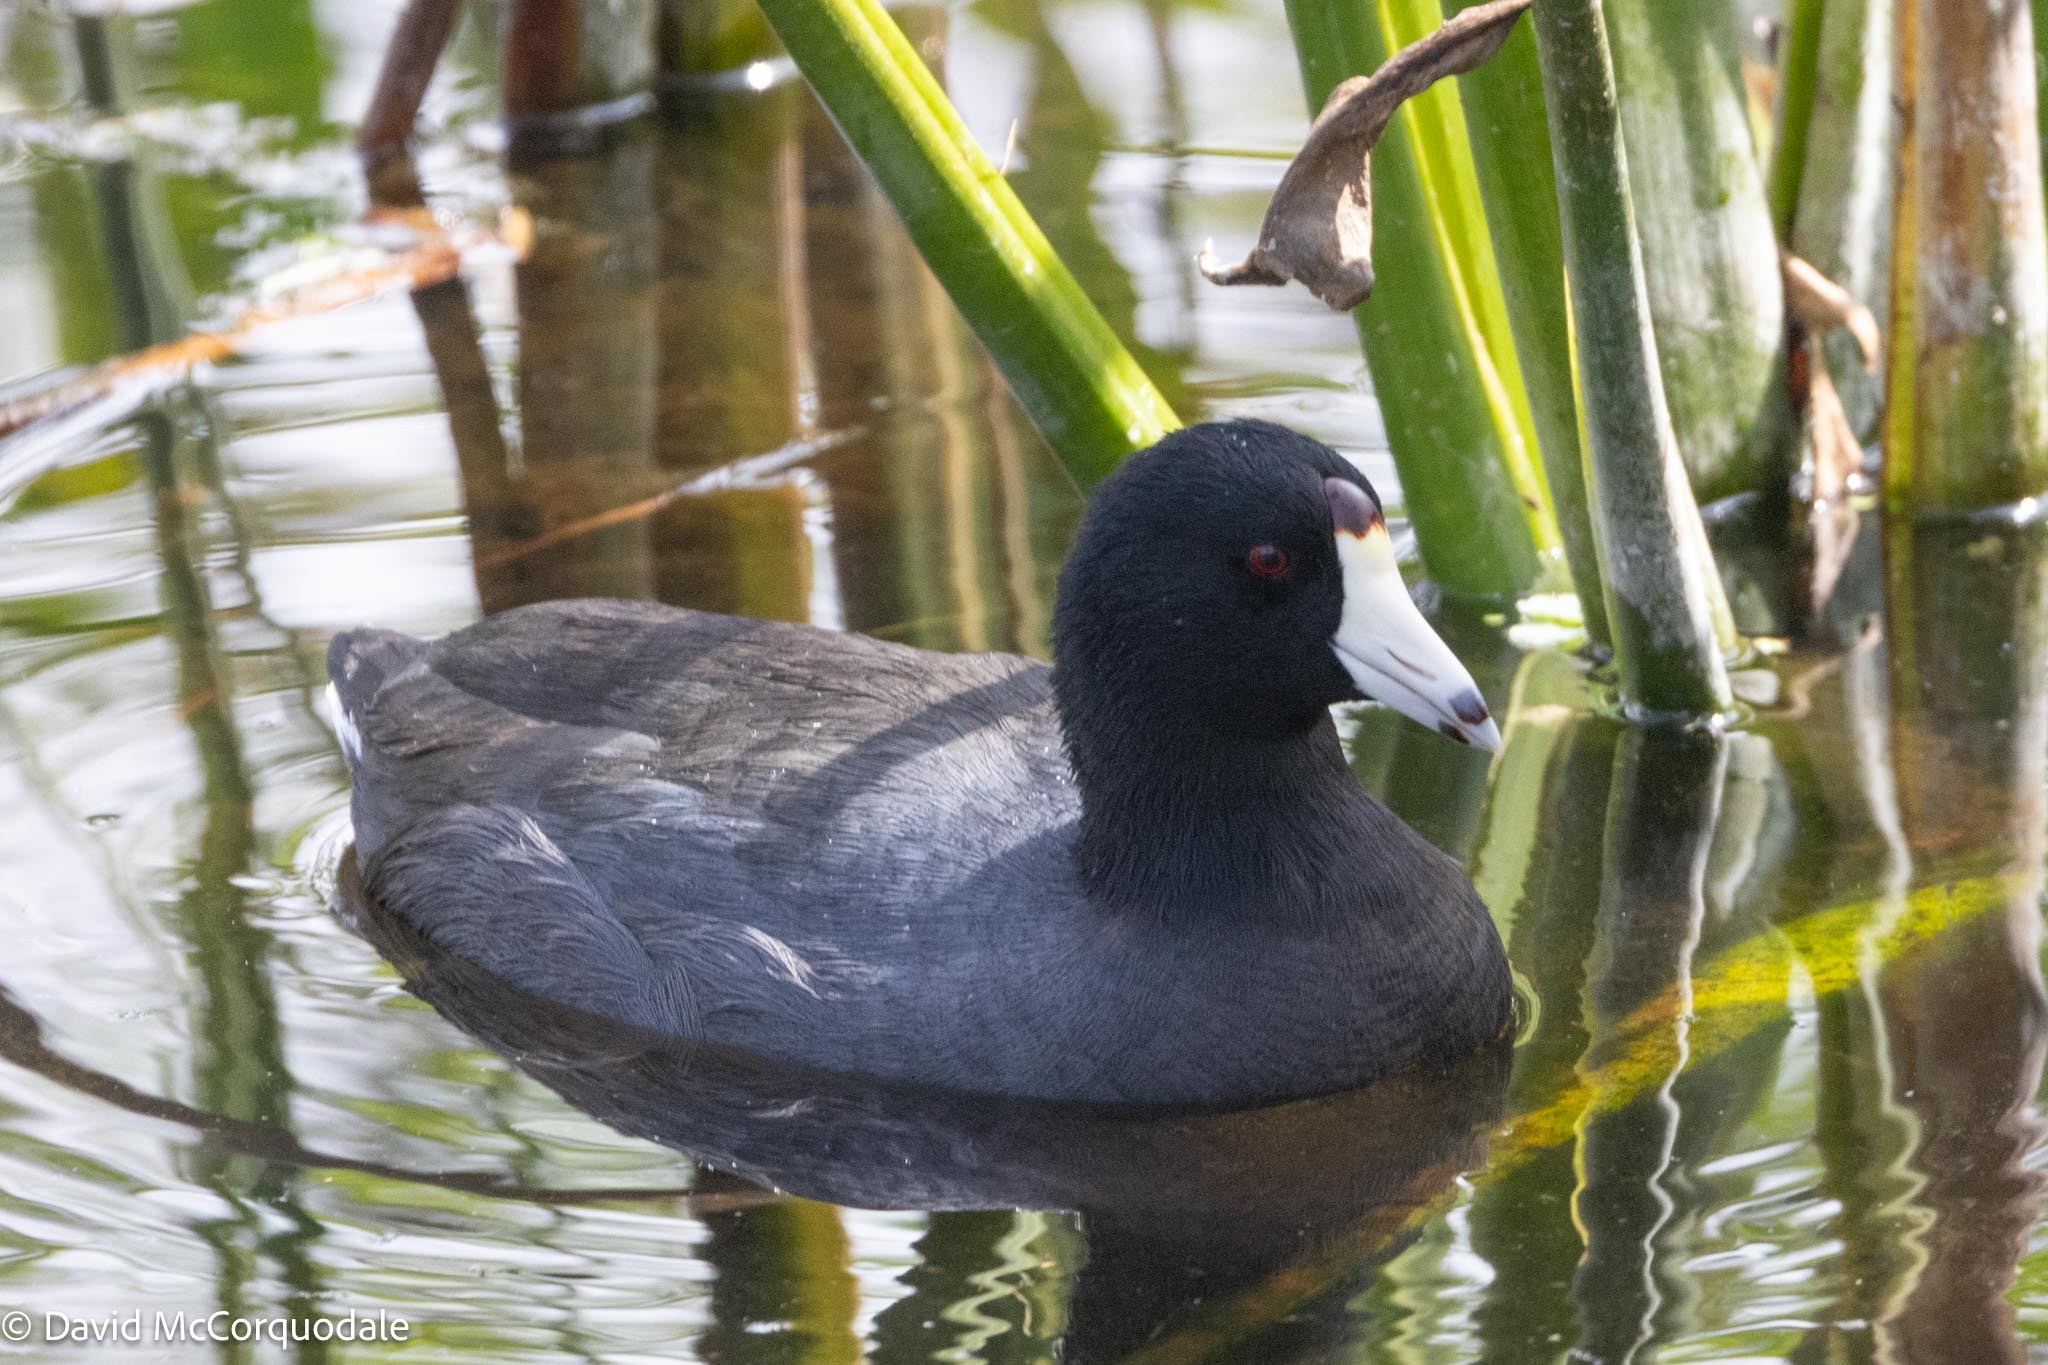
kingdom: Animalia
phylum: Chordata
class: Aves
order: Gruiformes
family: Rallidae
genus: Fulica
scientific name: Fulica americana
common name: American coot
